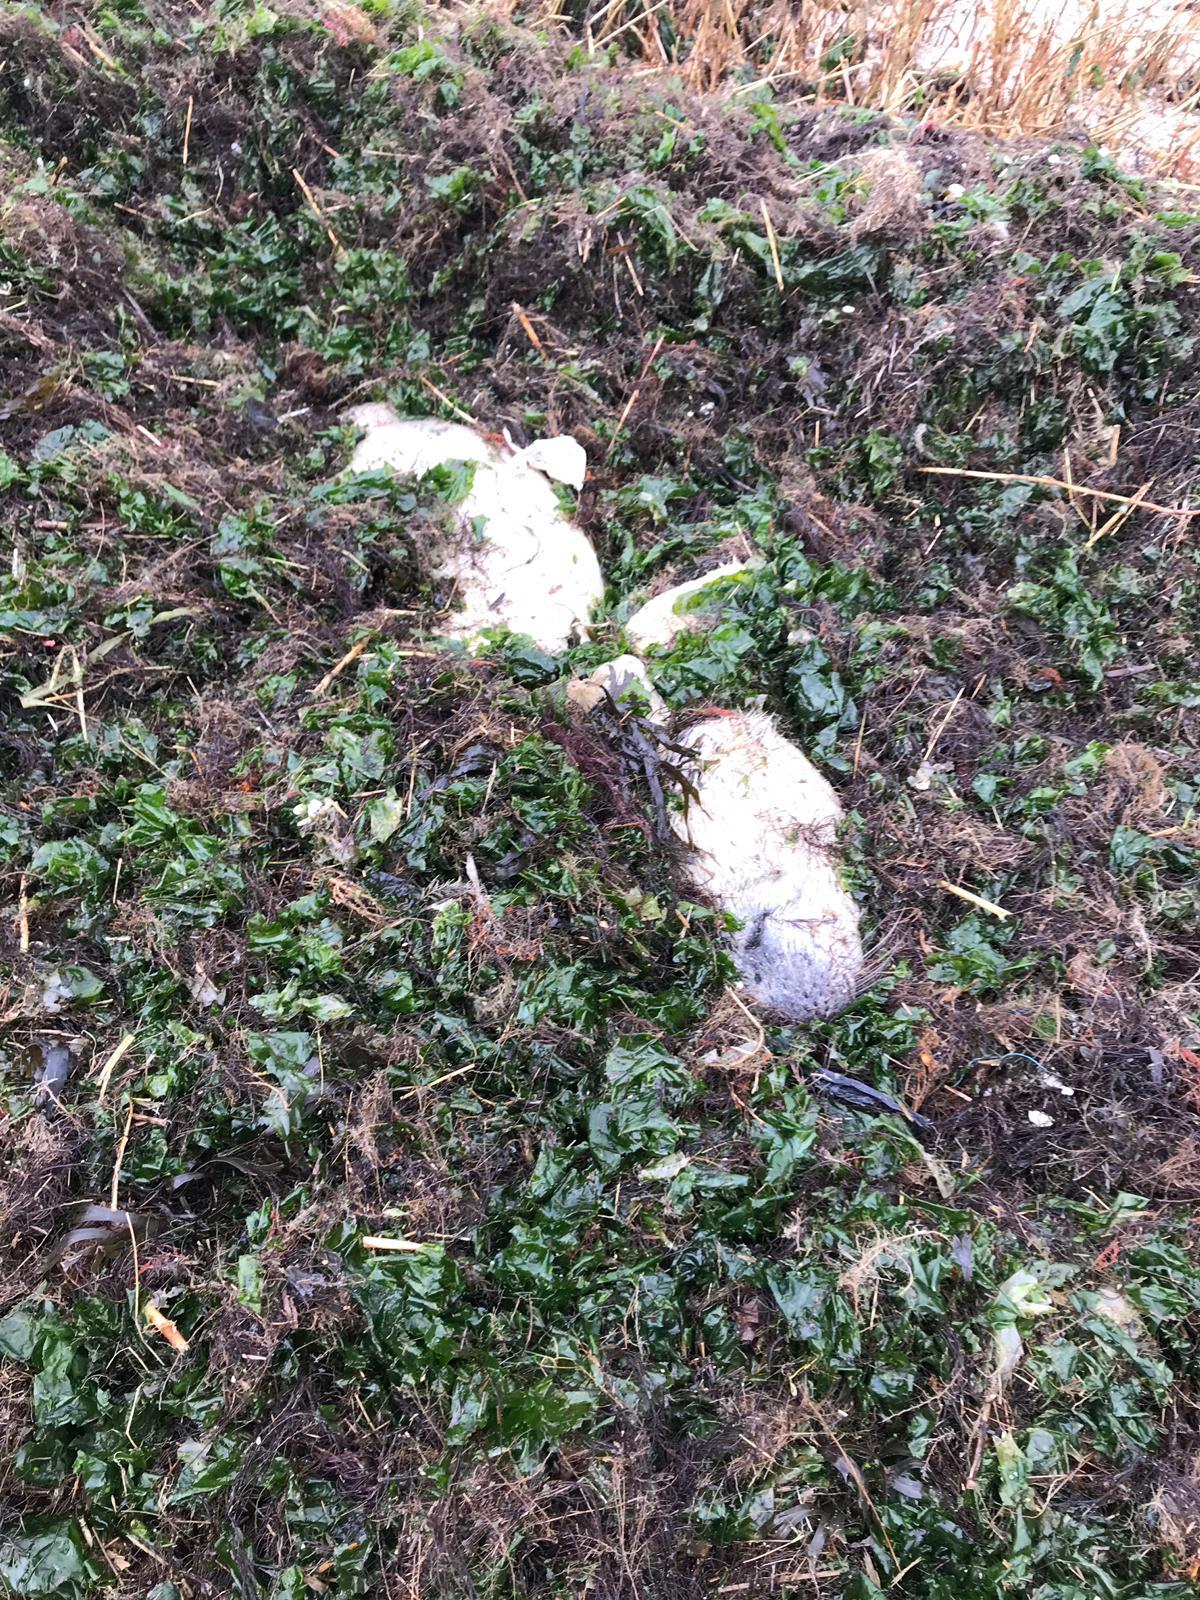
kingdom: Animalia
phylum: Chordata
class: Mammalia
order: Carnivora
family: Phocidae
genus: Halichoerus
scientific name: Halichoerus grypus
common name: Grey seal
